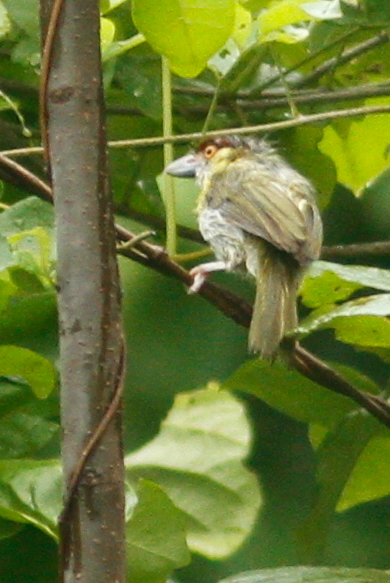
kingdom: Animalia
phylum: Chordata
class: Aves
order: Passeriformes
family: Vireonidae
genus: Cyclarhis
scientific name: Cyclarhis gujanensis
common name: Rufous-browed peppershrike
